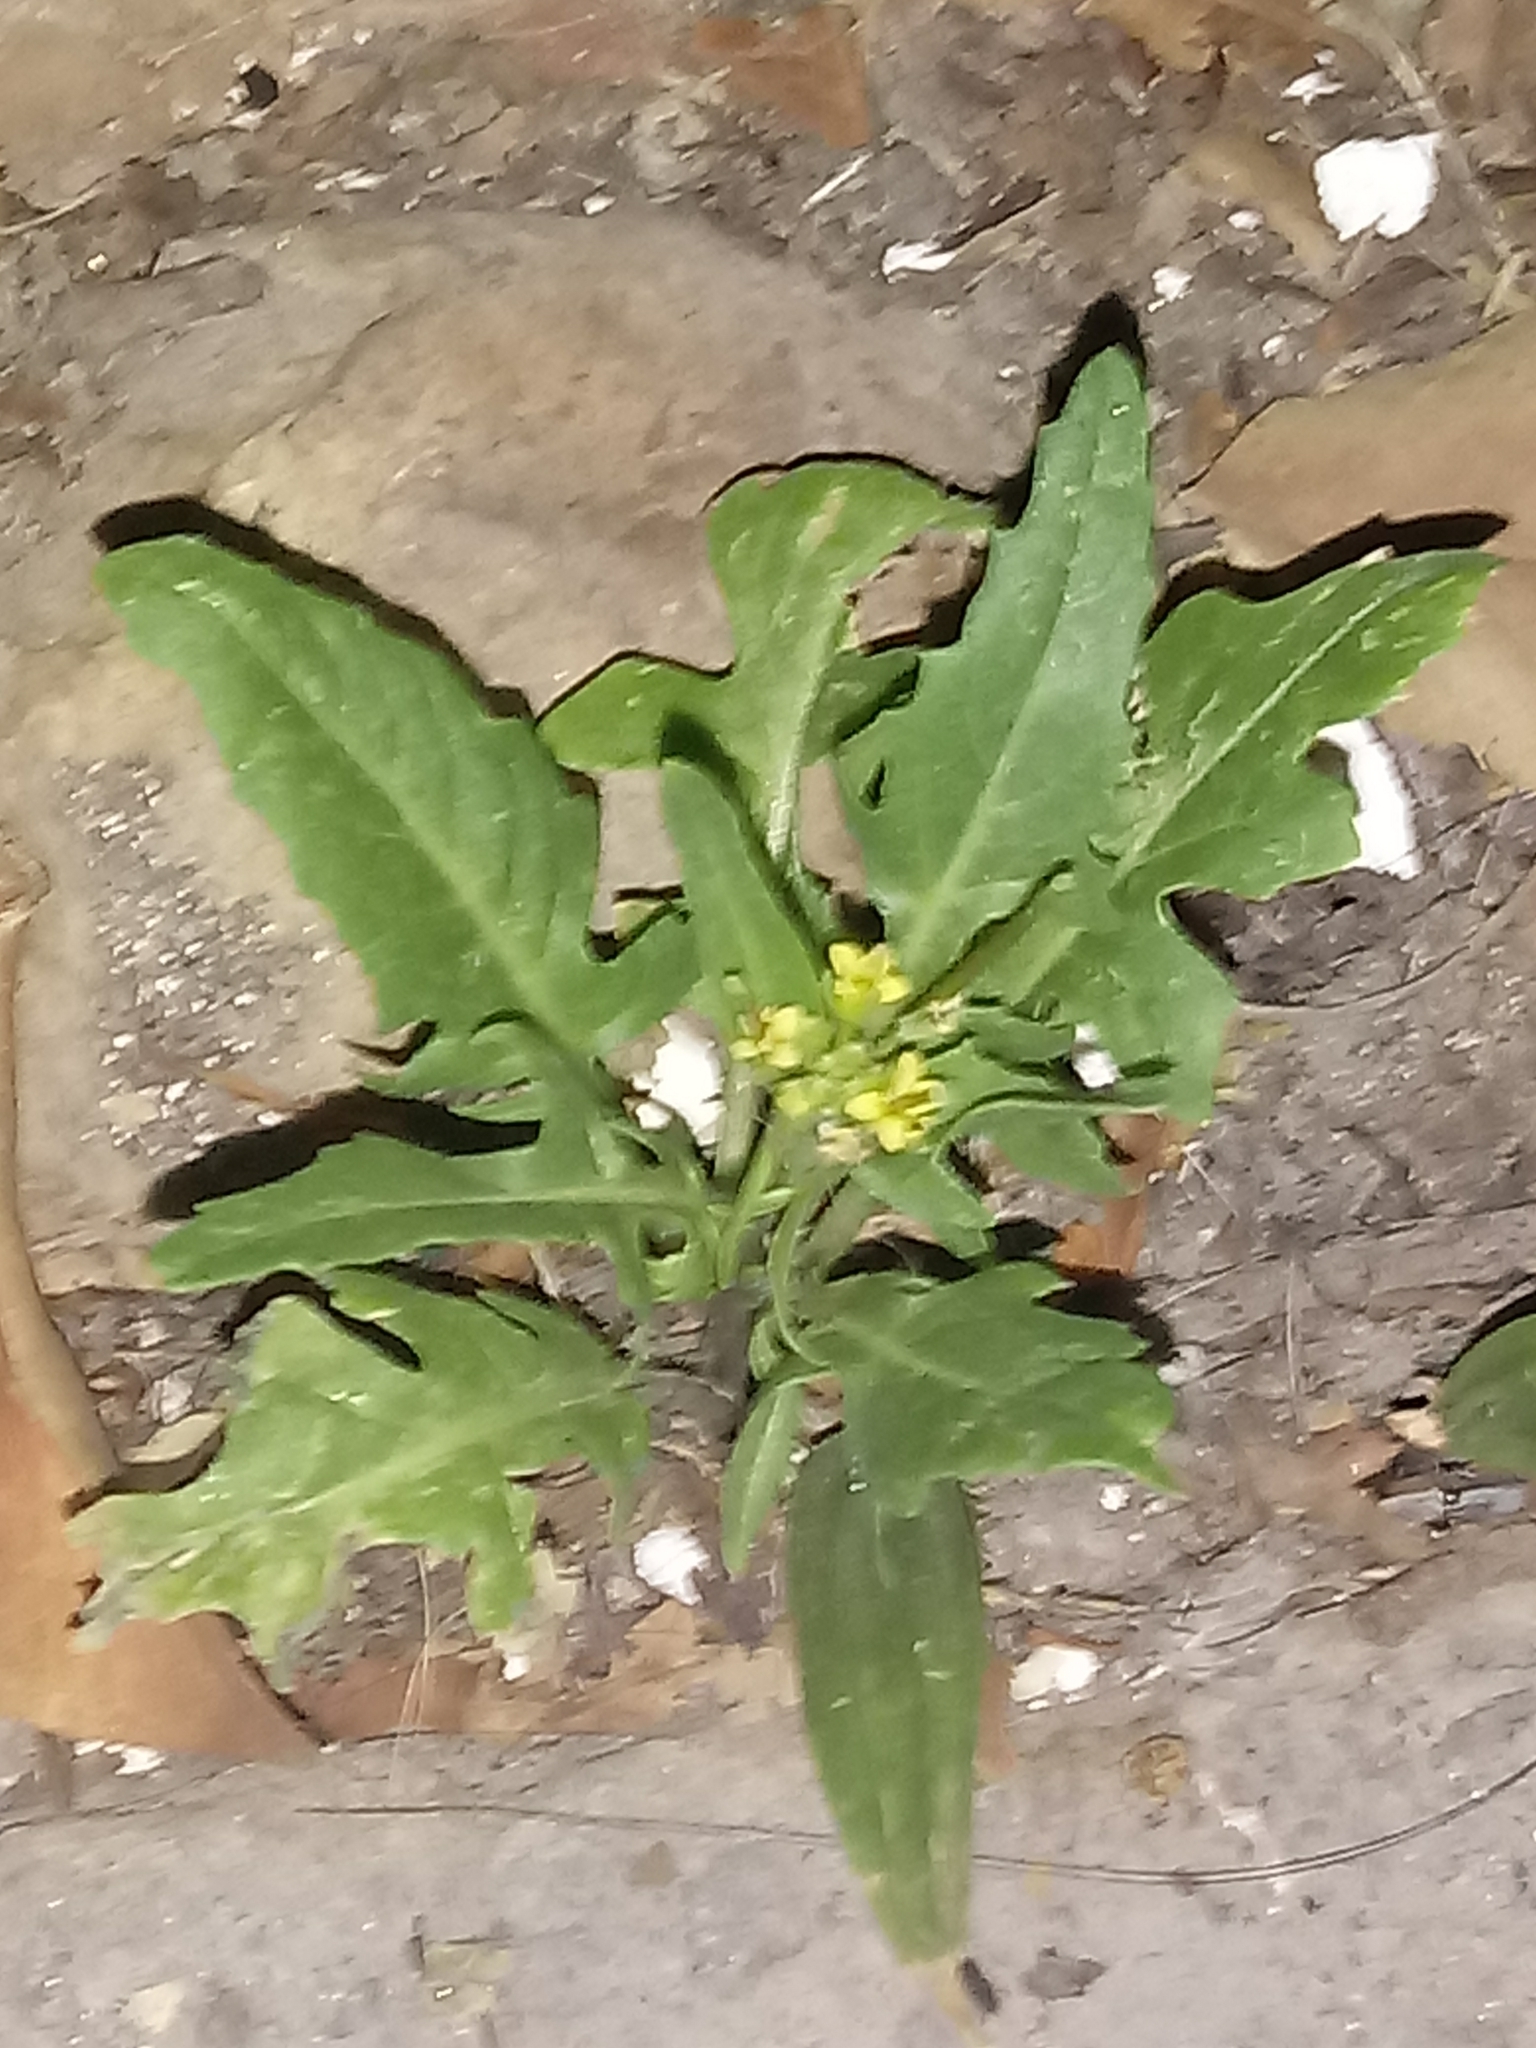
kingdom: Plantae
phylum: Tracheophyta
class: Magnoliopsida
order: Brassicales
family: Brassicaceae
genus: Sisymbrium
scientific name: Sisymbrium irio
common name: London rocket
